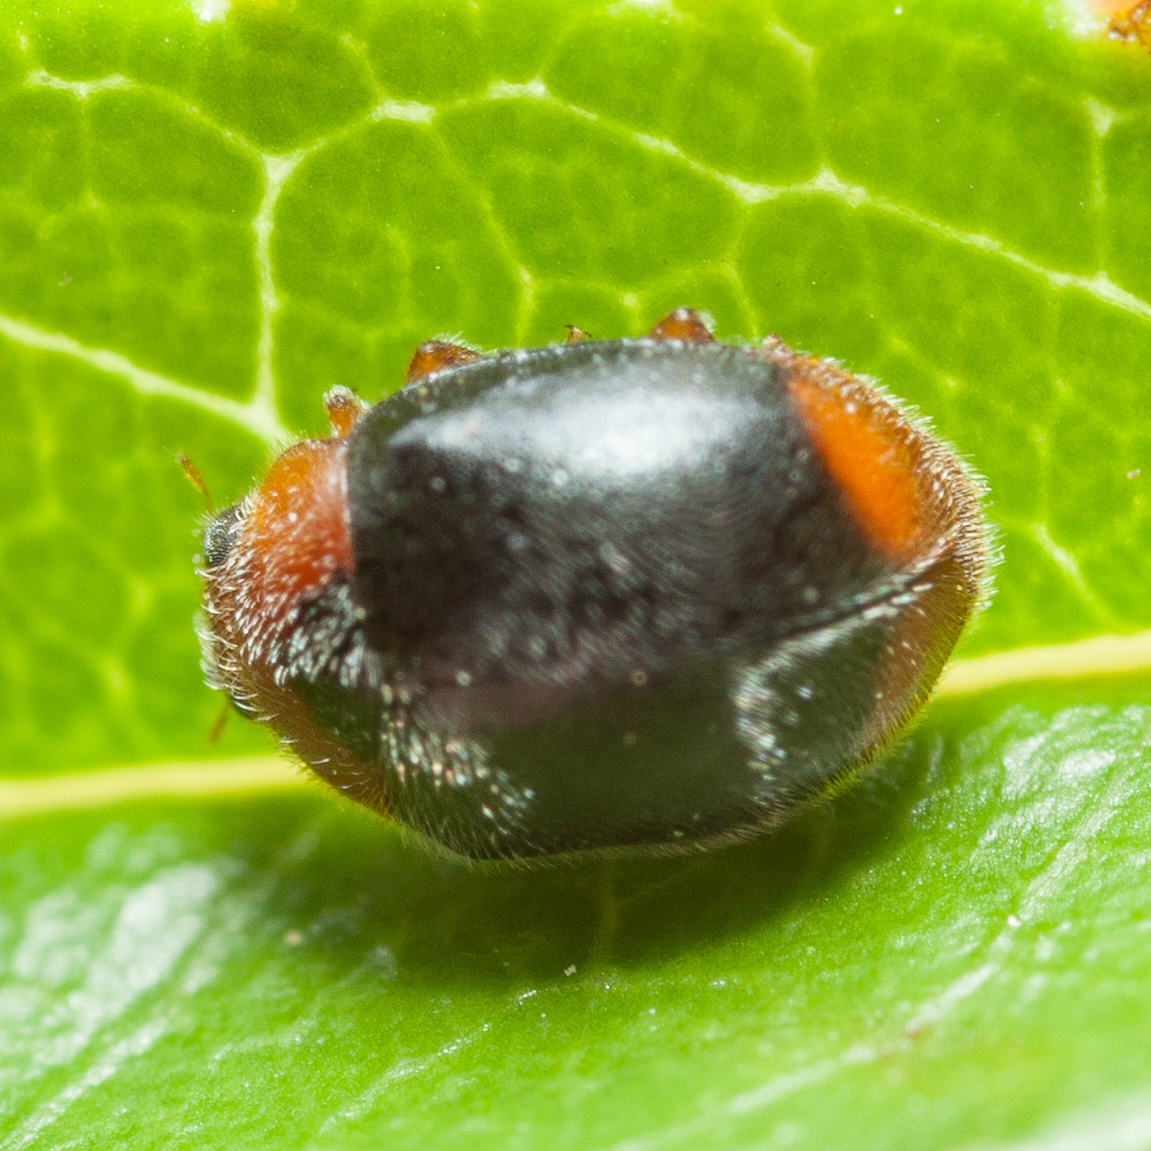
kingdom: Animalia
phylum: Arthropoda
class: Insecta
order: Coleoptera
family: Coccinellidae
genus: Scymnus
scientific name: Scymnus louisianae
